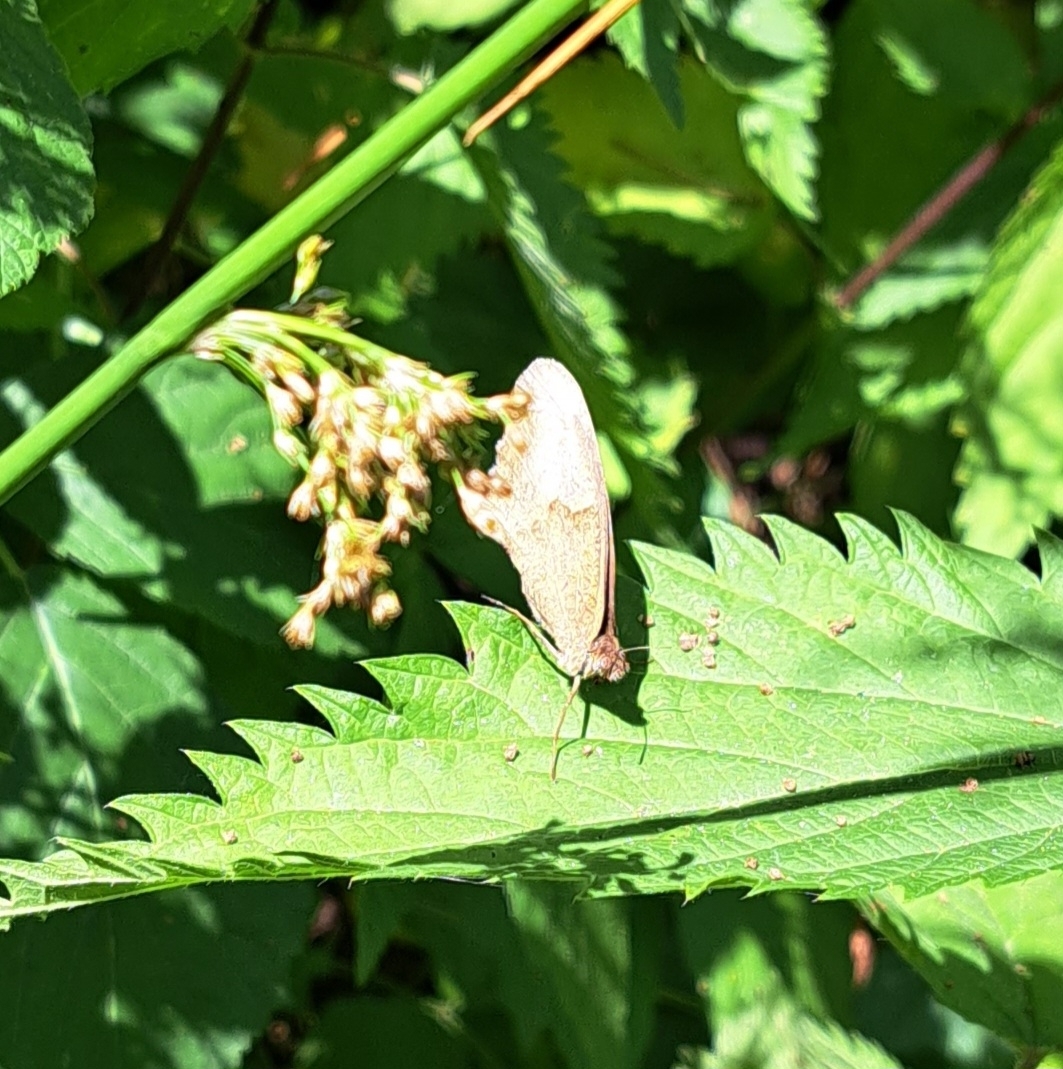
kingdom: Animalia
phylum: Arthropoda
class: Insecta
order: Lepidoptera
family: Nymphalidae
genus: Maniola
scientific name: Maniola jurtina
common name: Meadow brown
